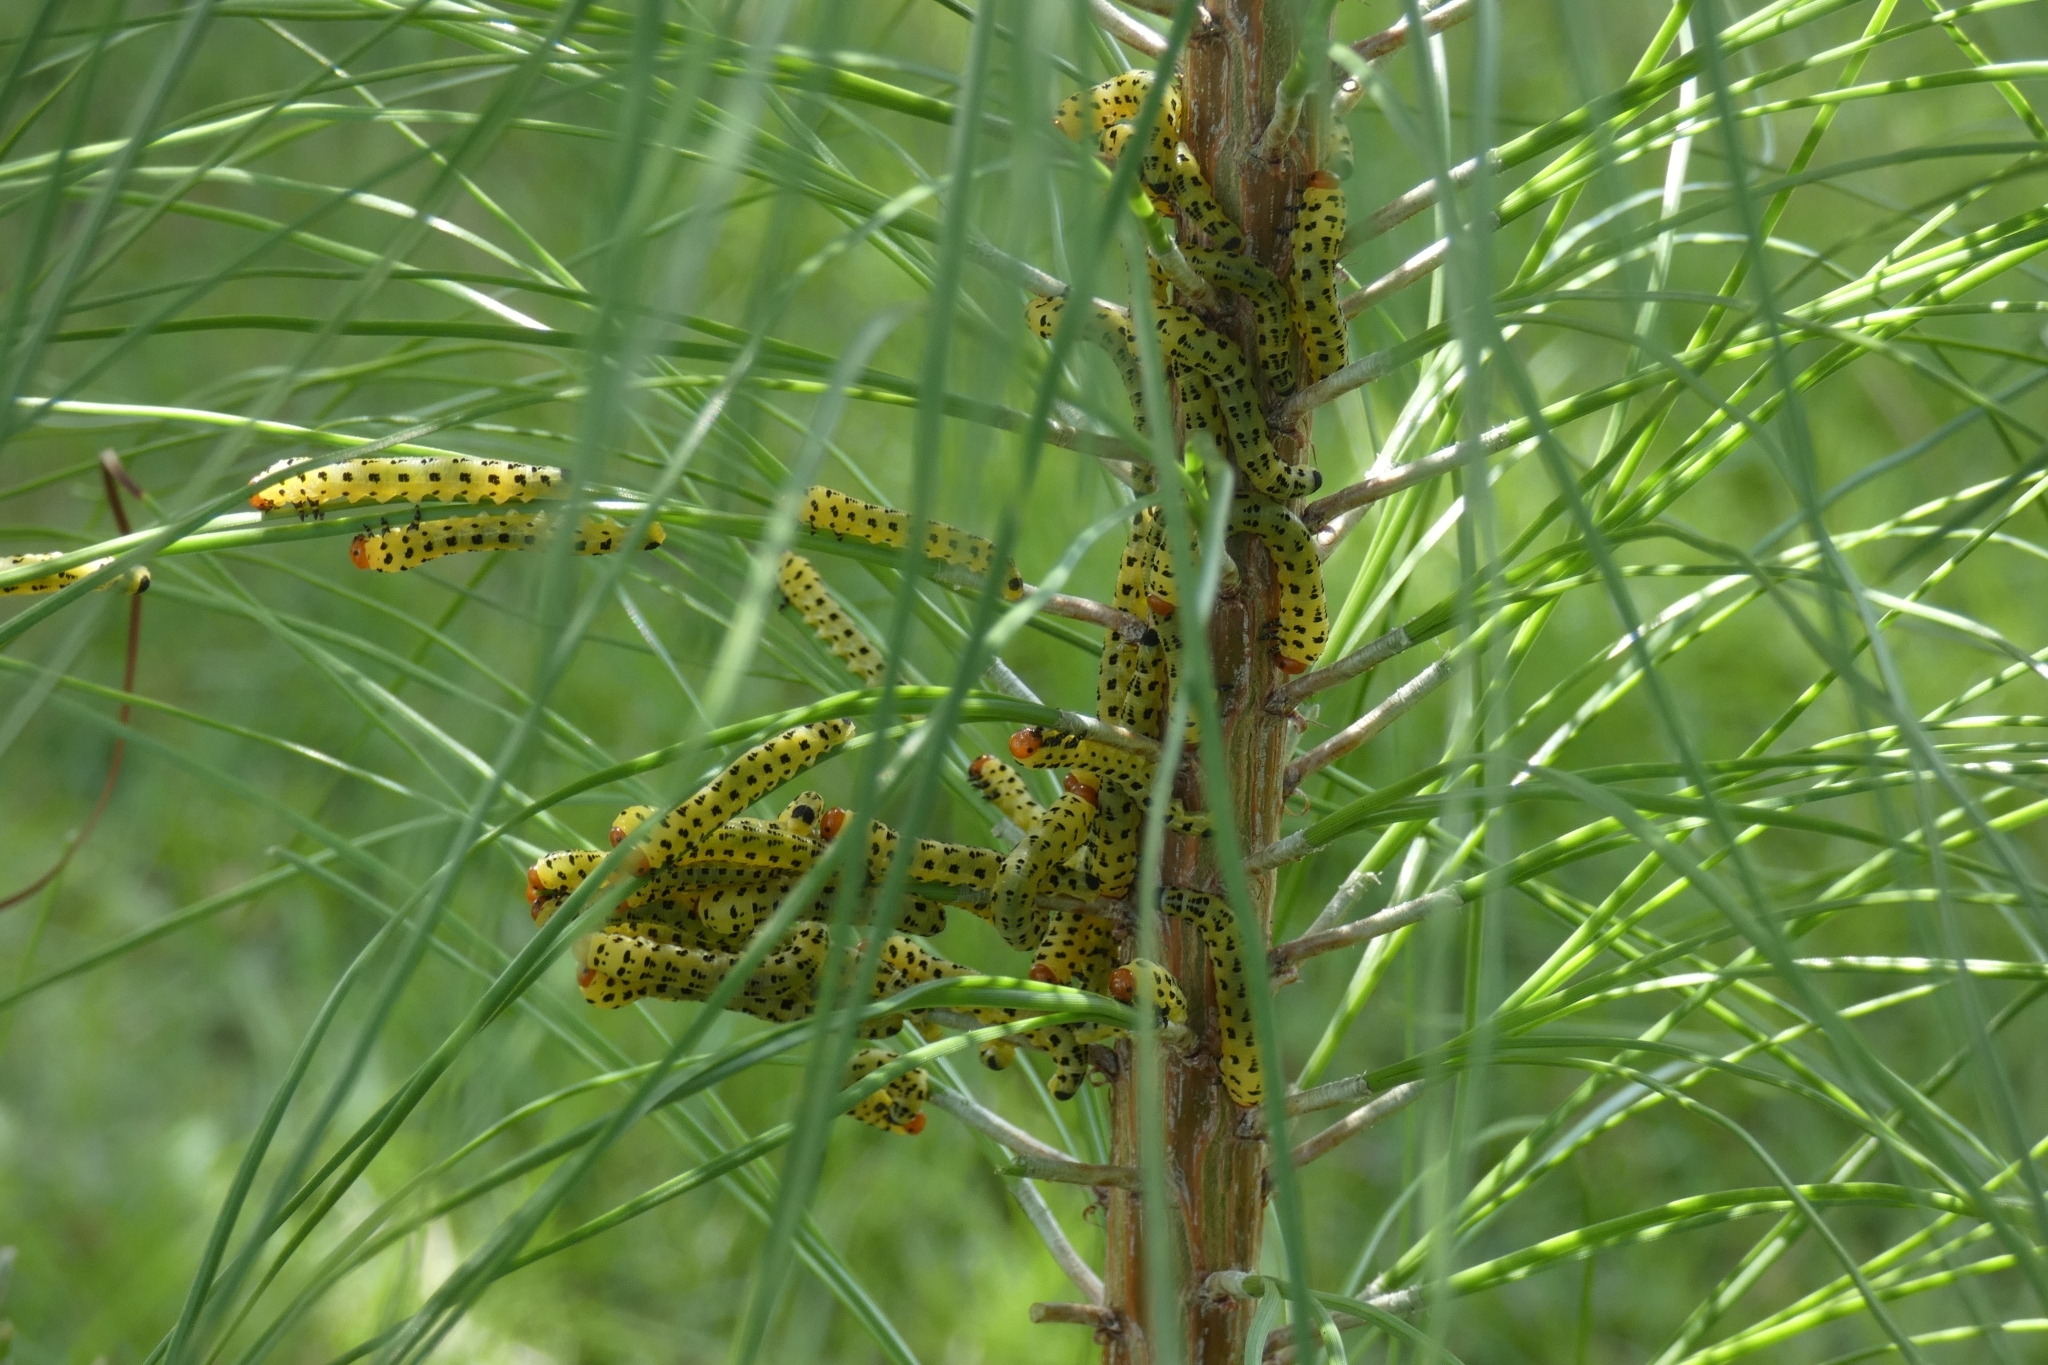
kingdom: Animalia
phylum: Arthropoda
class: Insecta
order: Hymenoptera
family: Diprionidae
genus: Neodiprion
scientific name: Neodiprion lecontei
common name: Redheaded pine sawfly
